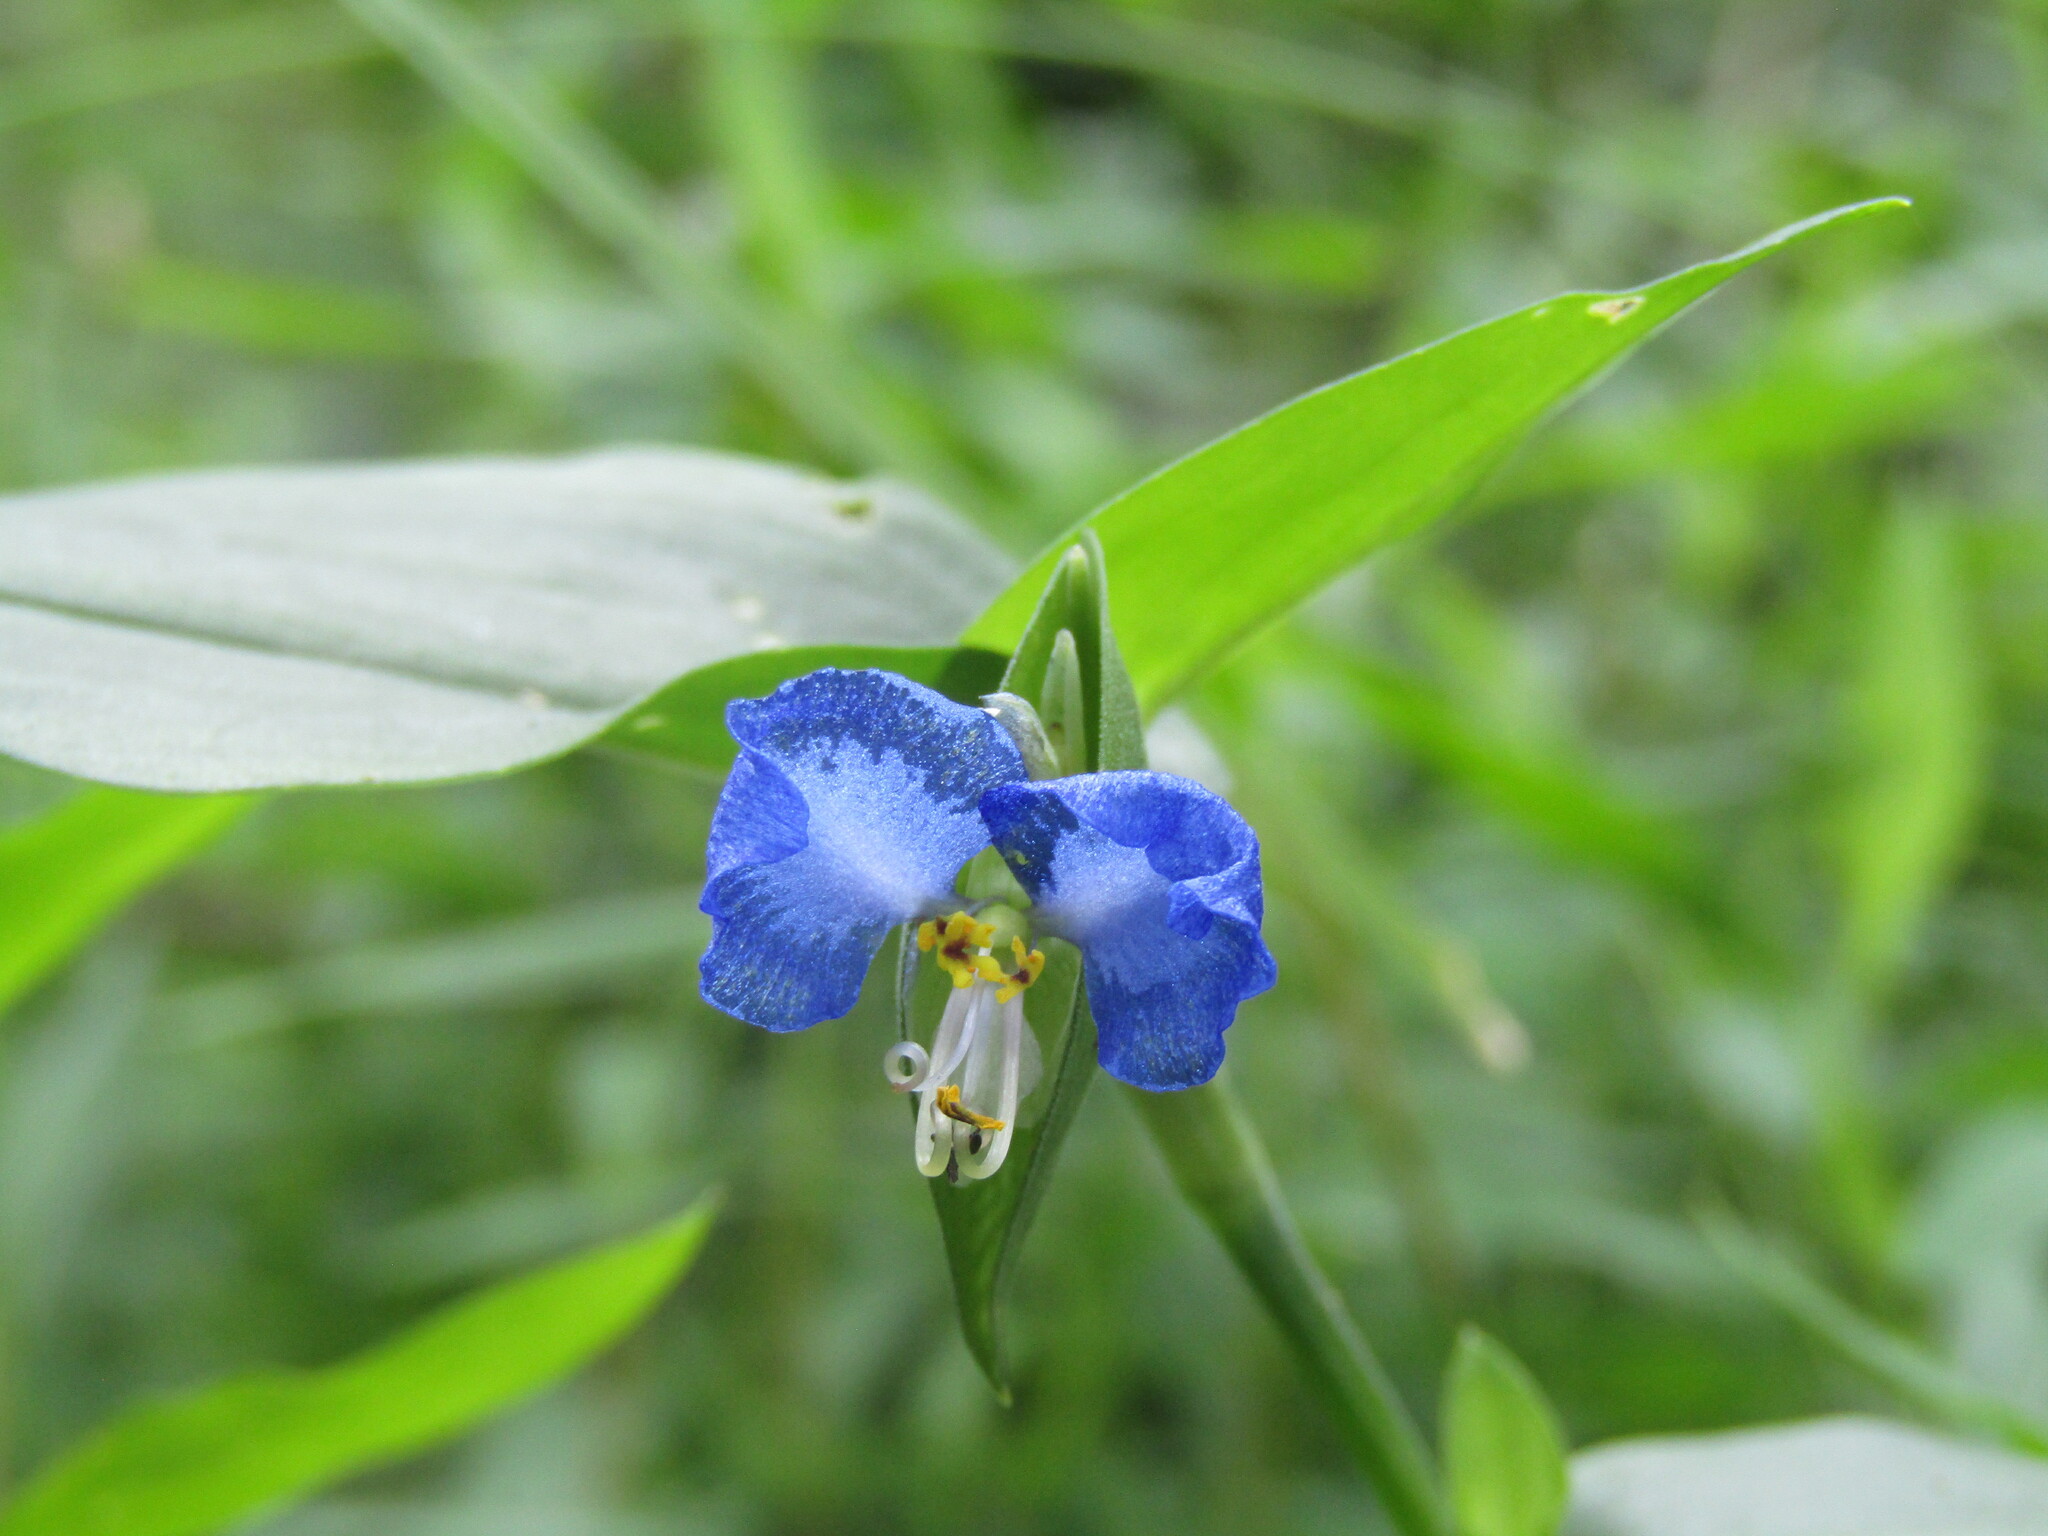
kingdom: Plantae
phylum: Tracheophyta
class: Liliopsida
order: Commelinales
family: Commelinaceae
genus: Commelina
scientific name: Commelina communis
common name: Asiatic dayflower
